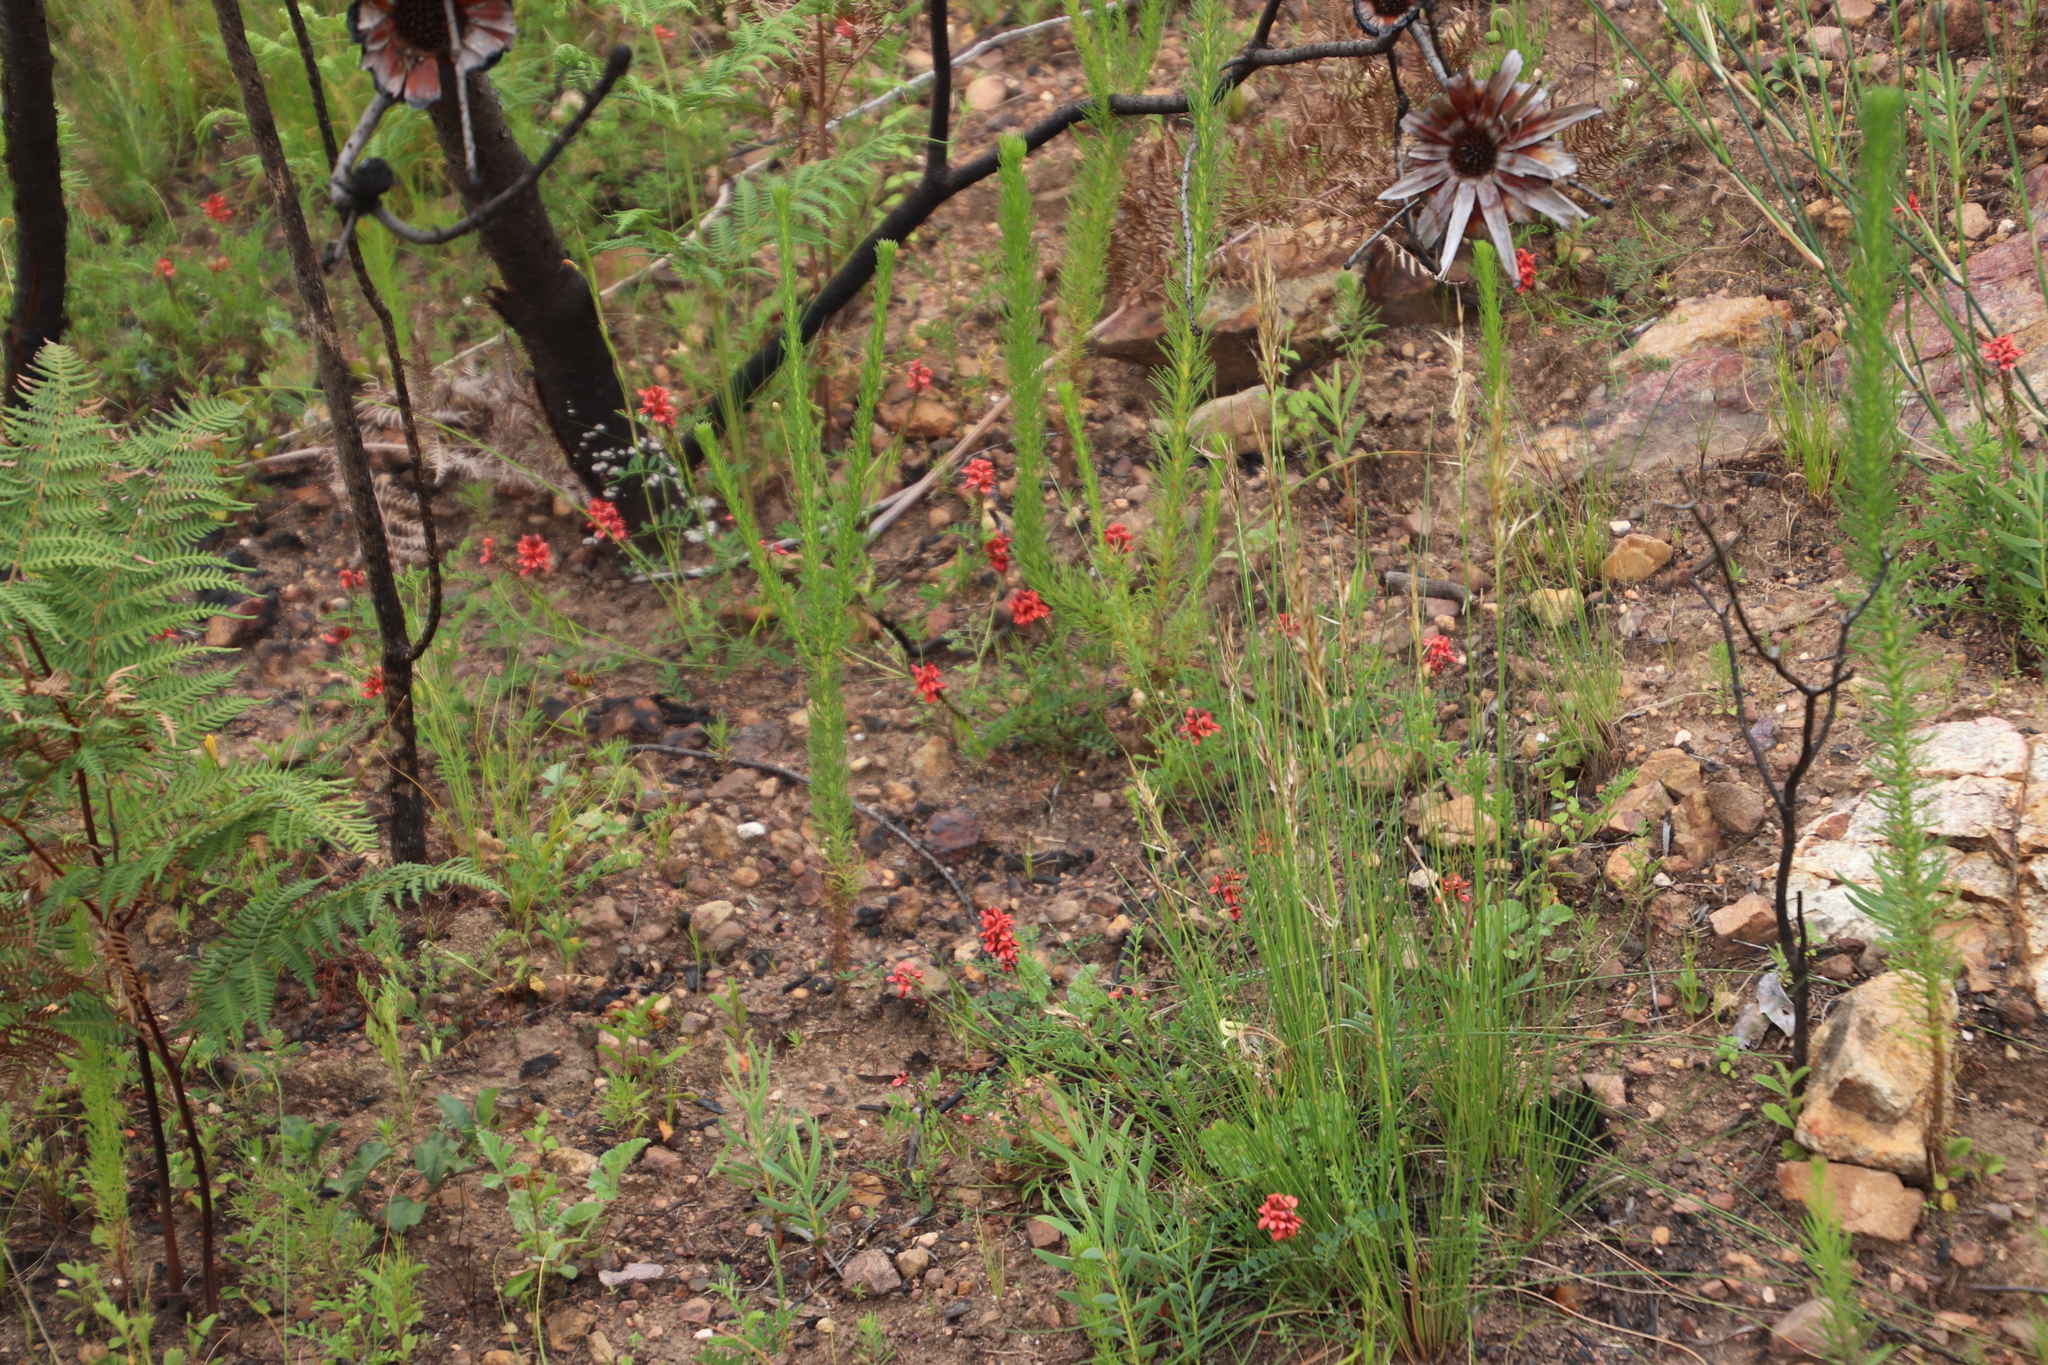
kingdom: Plantae
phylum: Tracheophyta
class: Magnoliopsida
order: Fabales
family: Fabaceae
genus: Indigofera
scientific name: Indigofera capillaris
